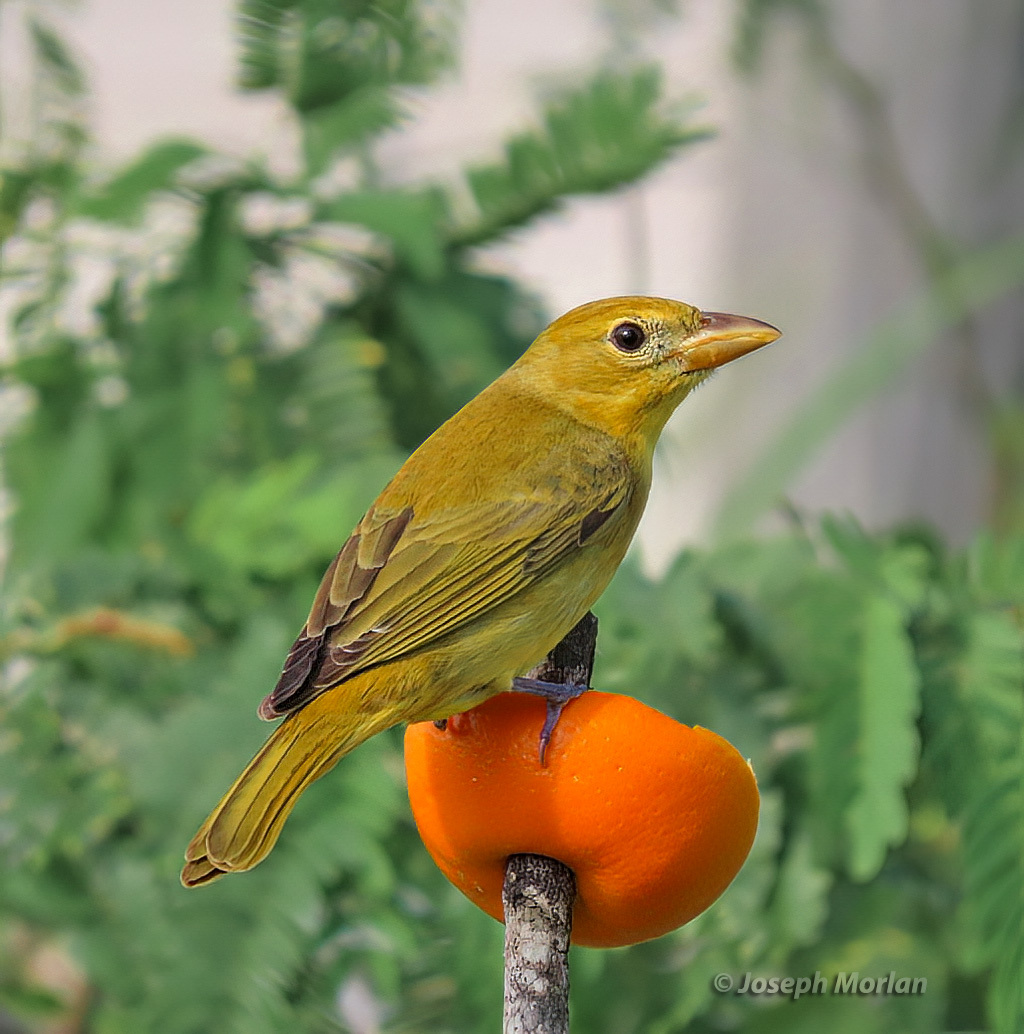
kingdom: Animalia
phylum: Chordata
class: Aves
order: Passeriformes
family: Cardinalidae
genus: Piranga
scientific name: Piranga rubra
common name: Summer tanager
